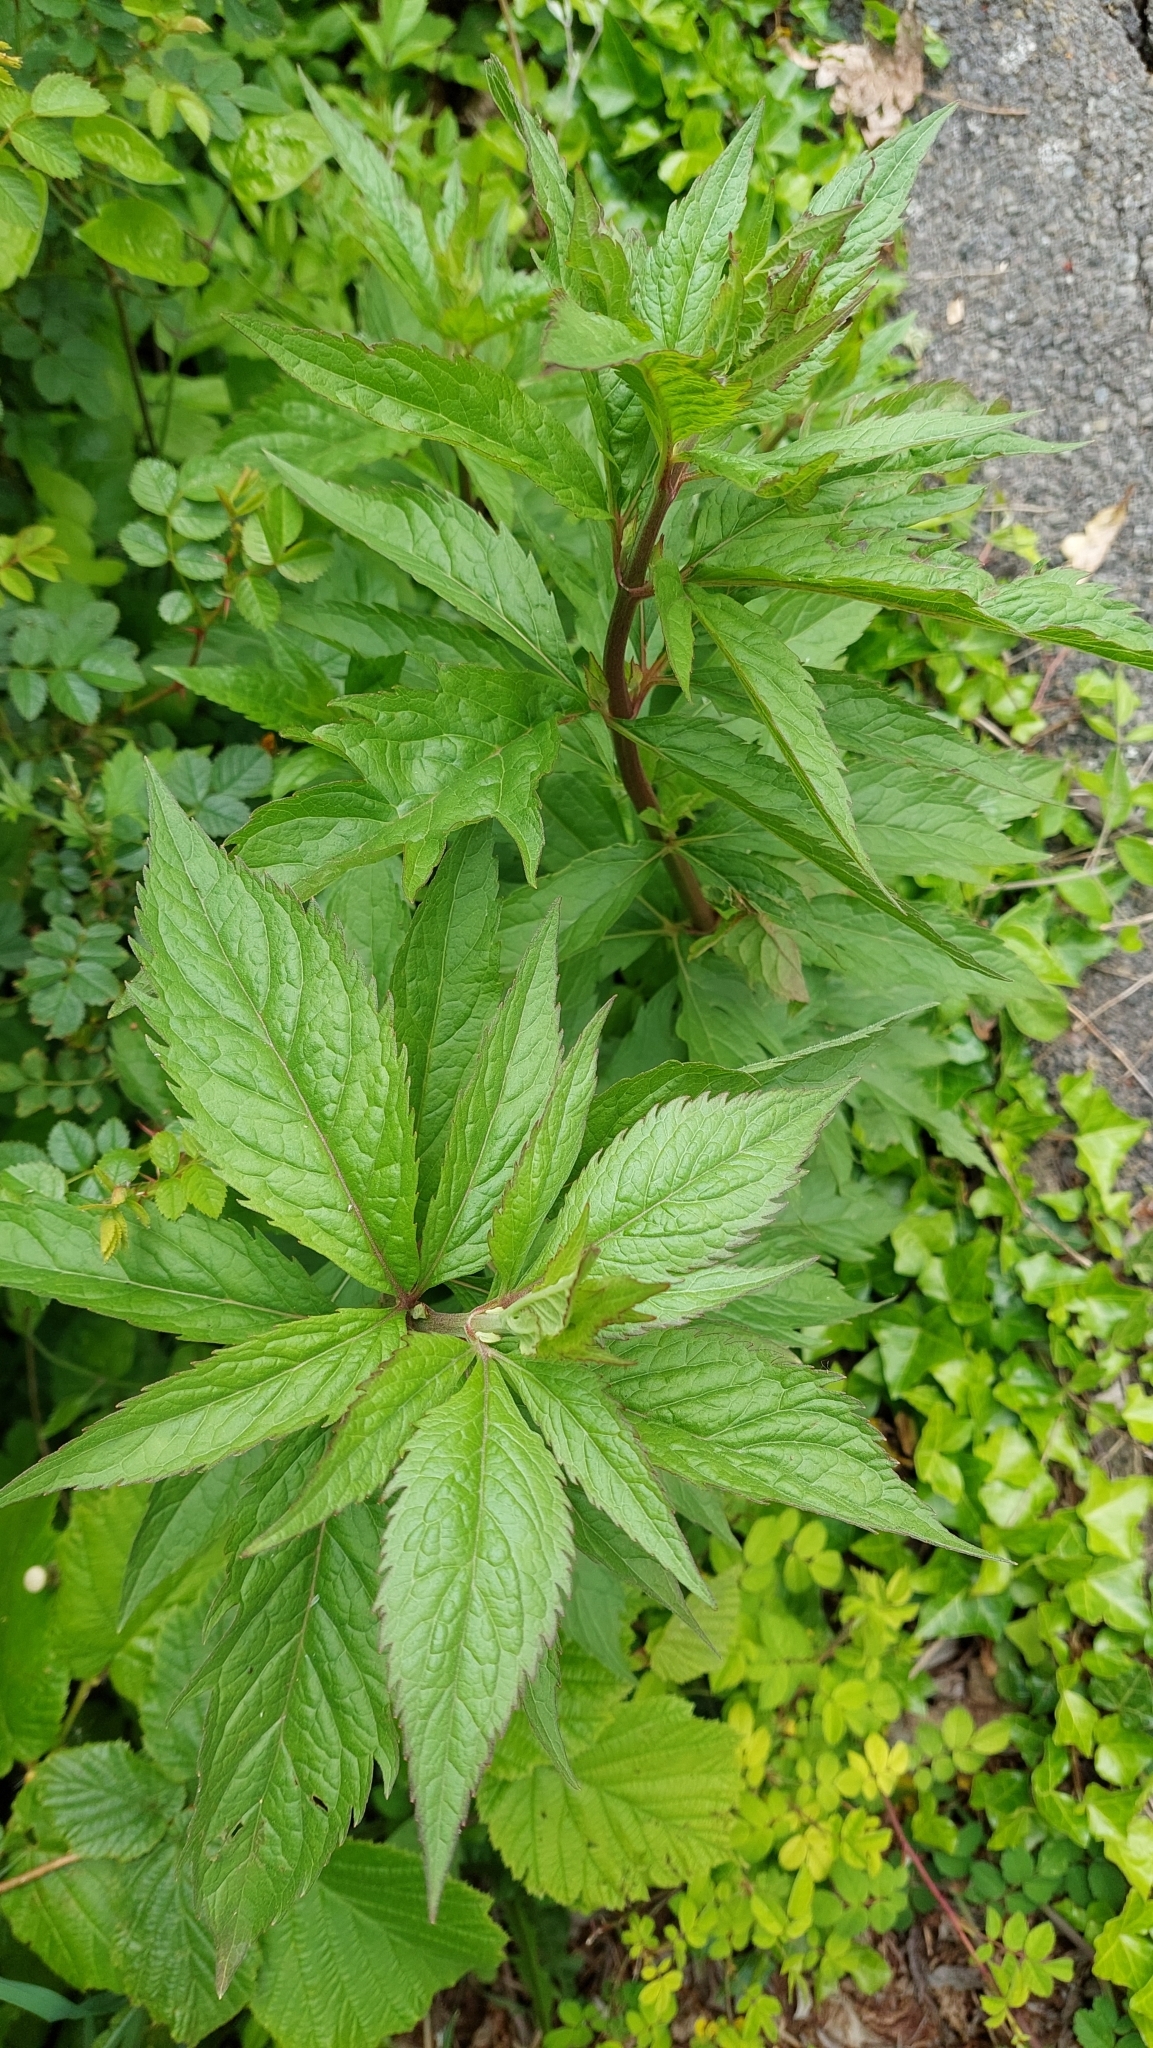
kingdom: Plantae
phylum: Tracheophyta
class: Magnoliopsida
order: Asterales
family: Asteraceae
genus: Eupatorium
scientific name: Eupatorium cannabinum
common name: Hemp-agrimony
